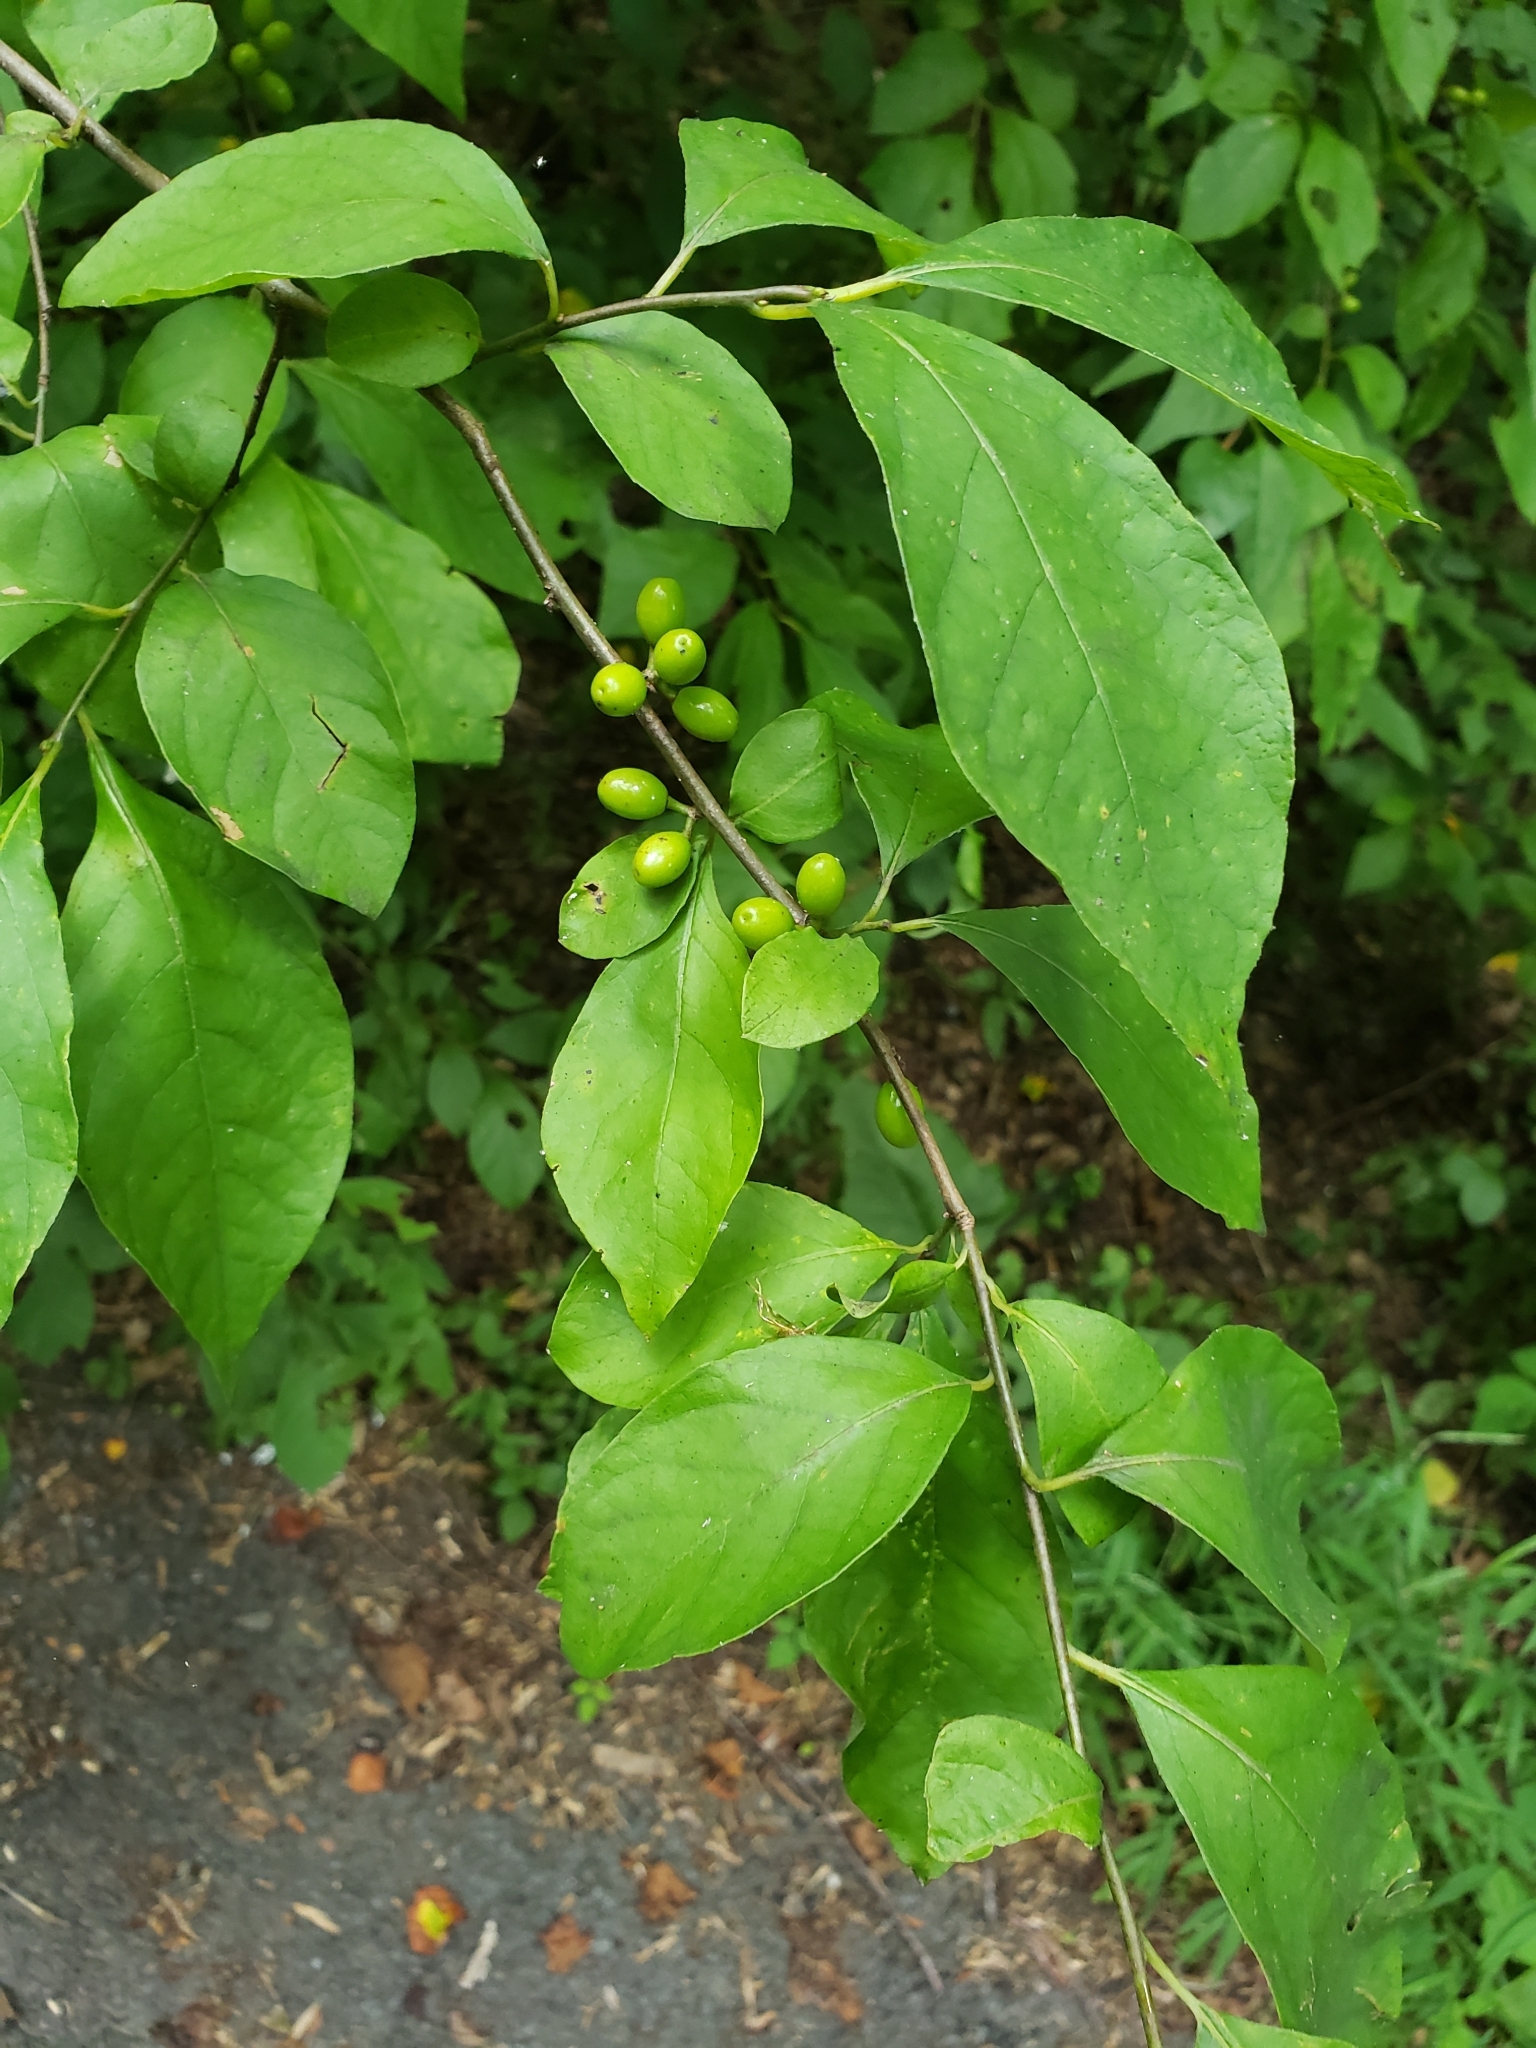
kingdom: Plantae
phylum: Tracheophyta
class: Magnoliopsida
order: Laurales
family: Lauraceae
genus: Lindera
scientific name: Lindera benzoin
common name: Spicebush
